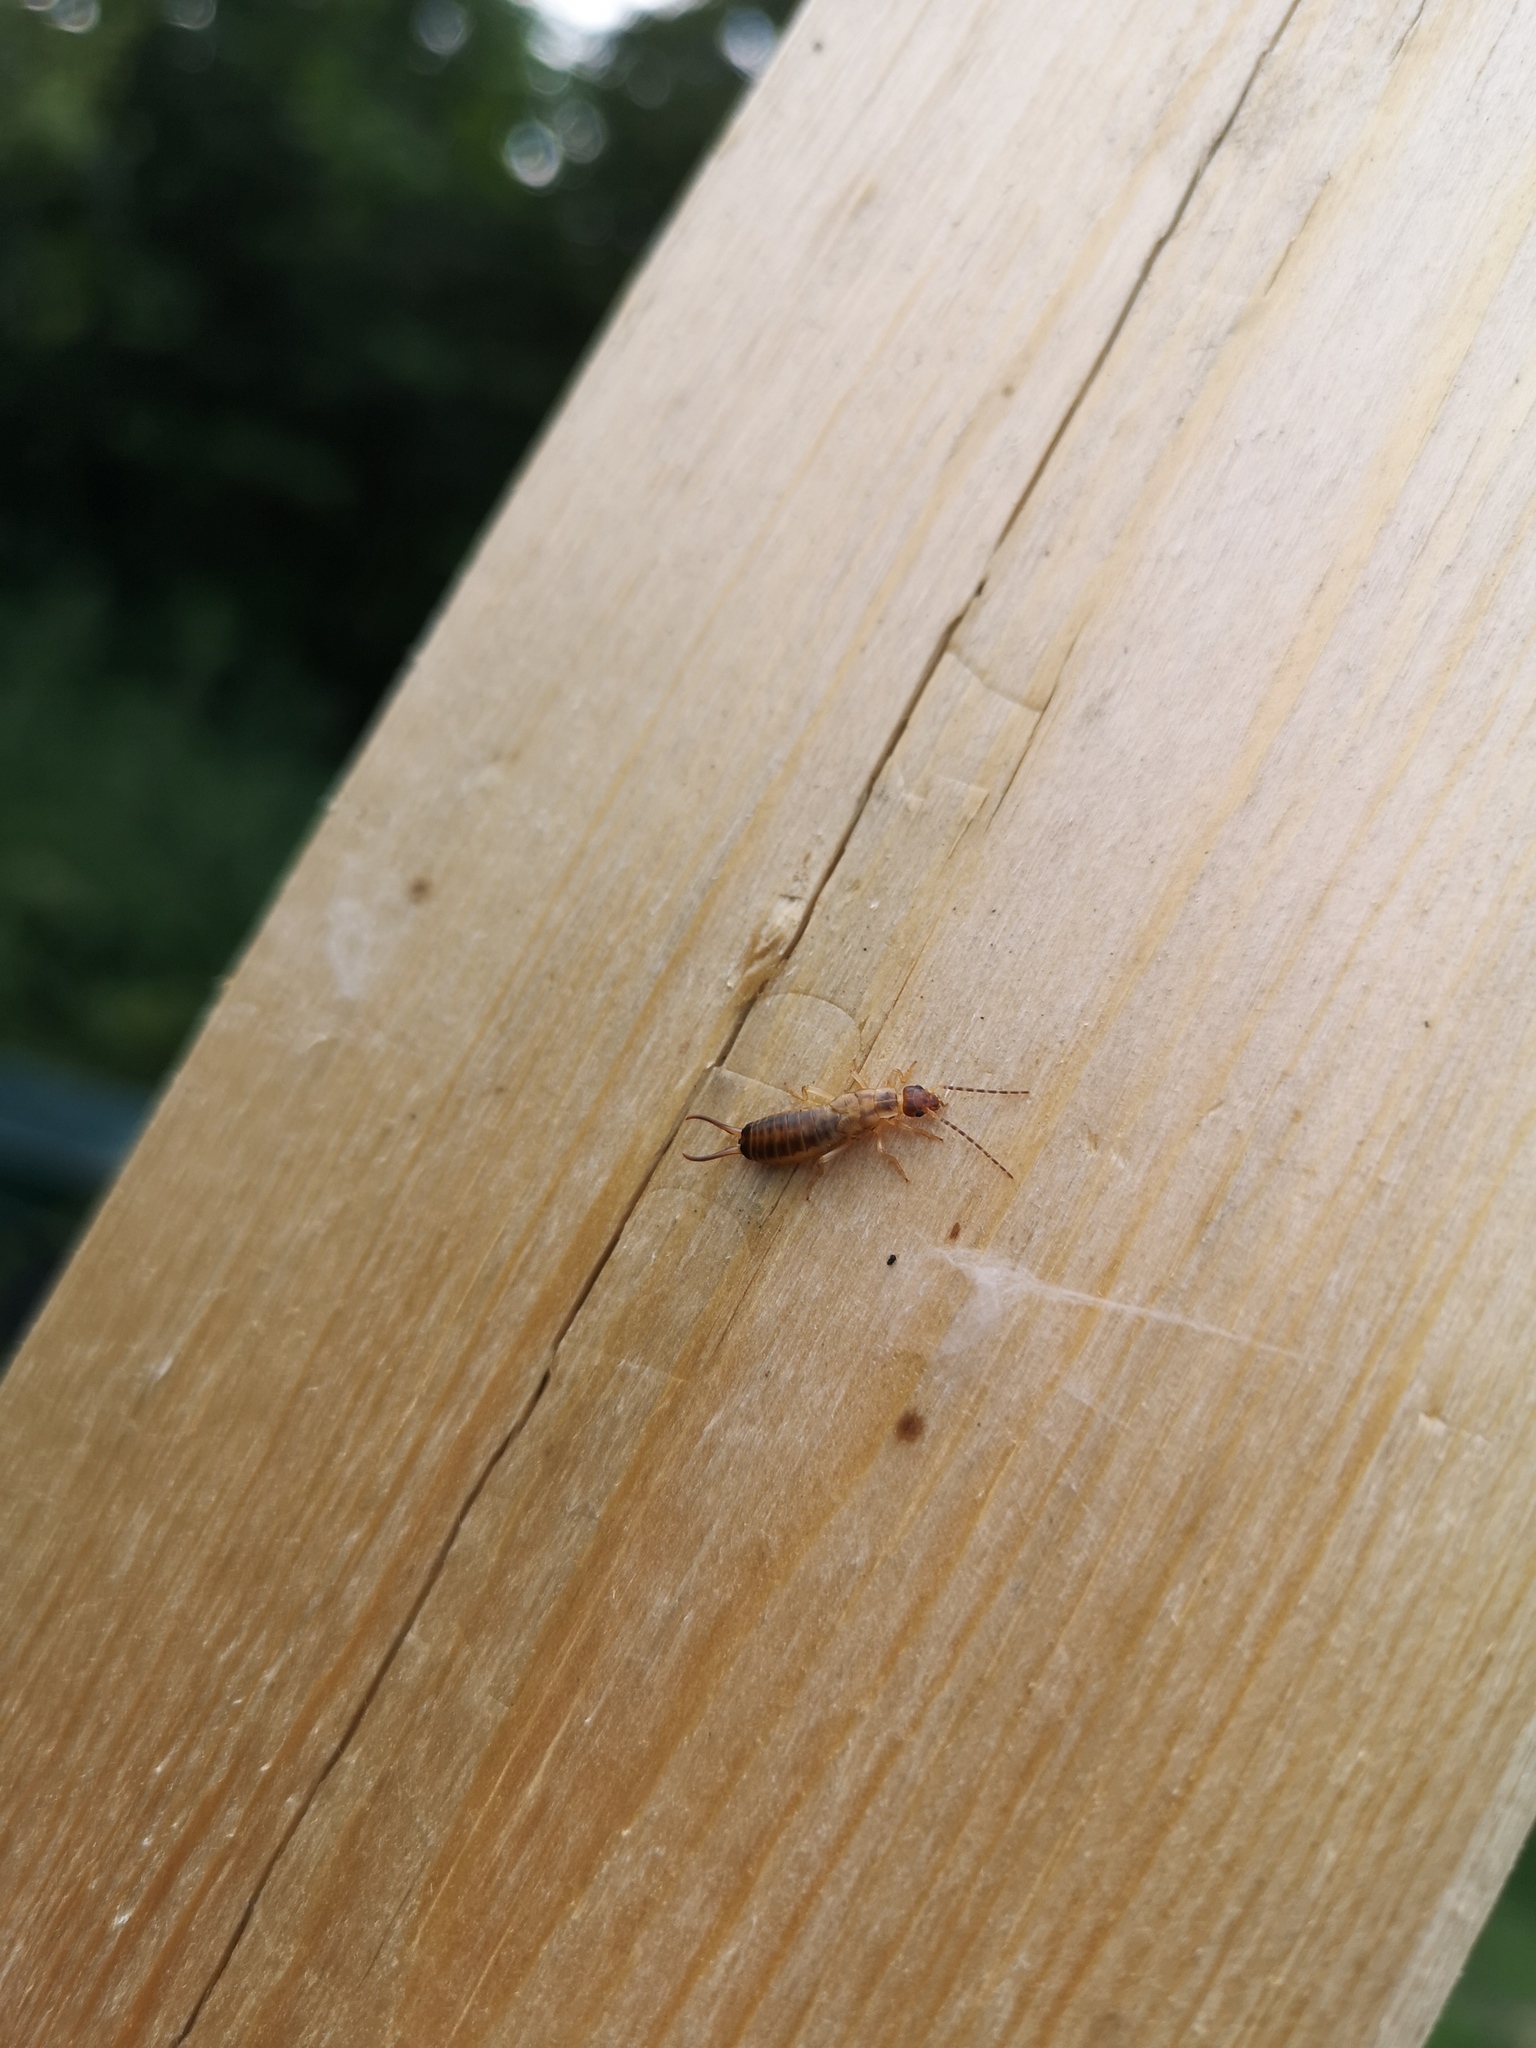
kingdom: Animalia
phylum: Arthropoda
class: Insecta
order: Dermaptera
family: Forficulidae
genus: Forficula
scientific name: Forficula
